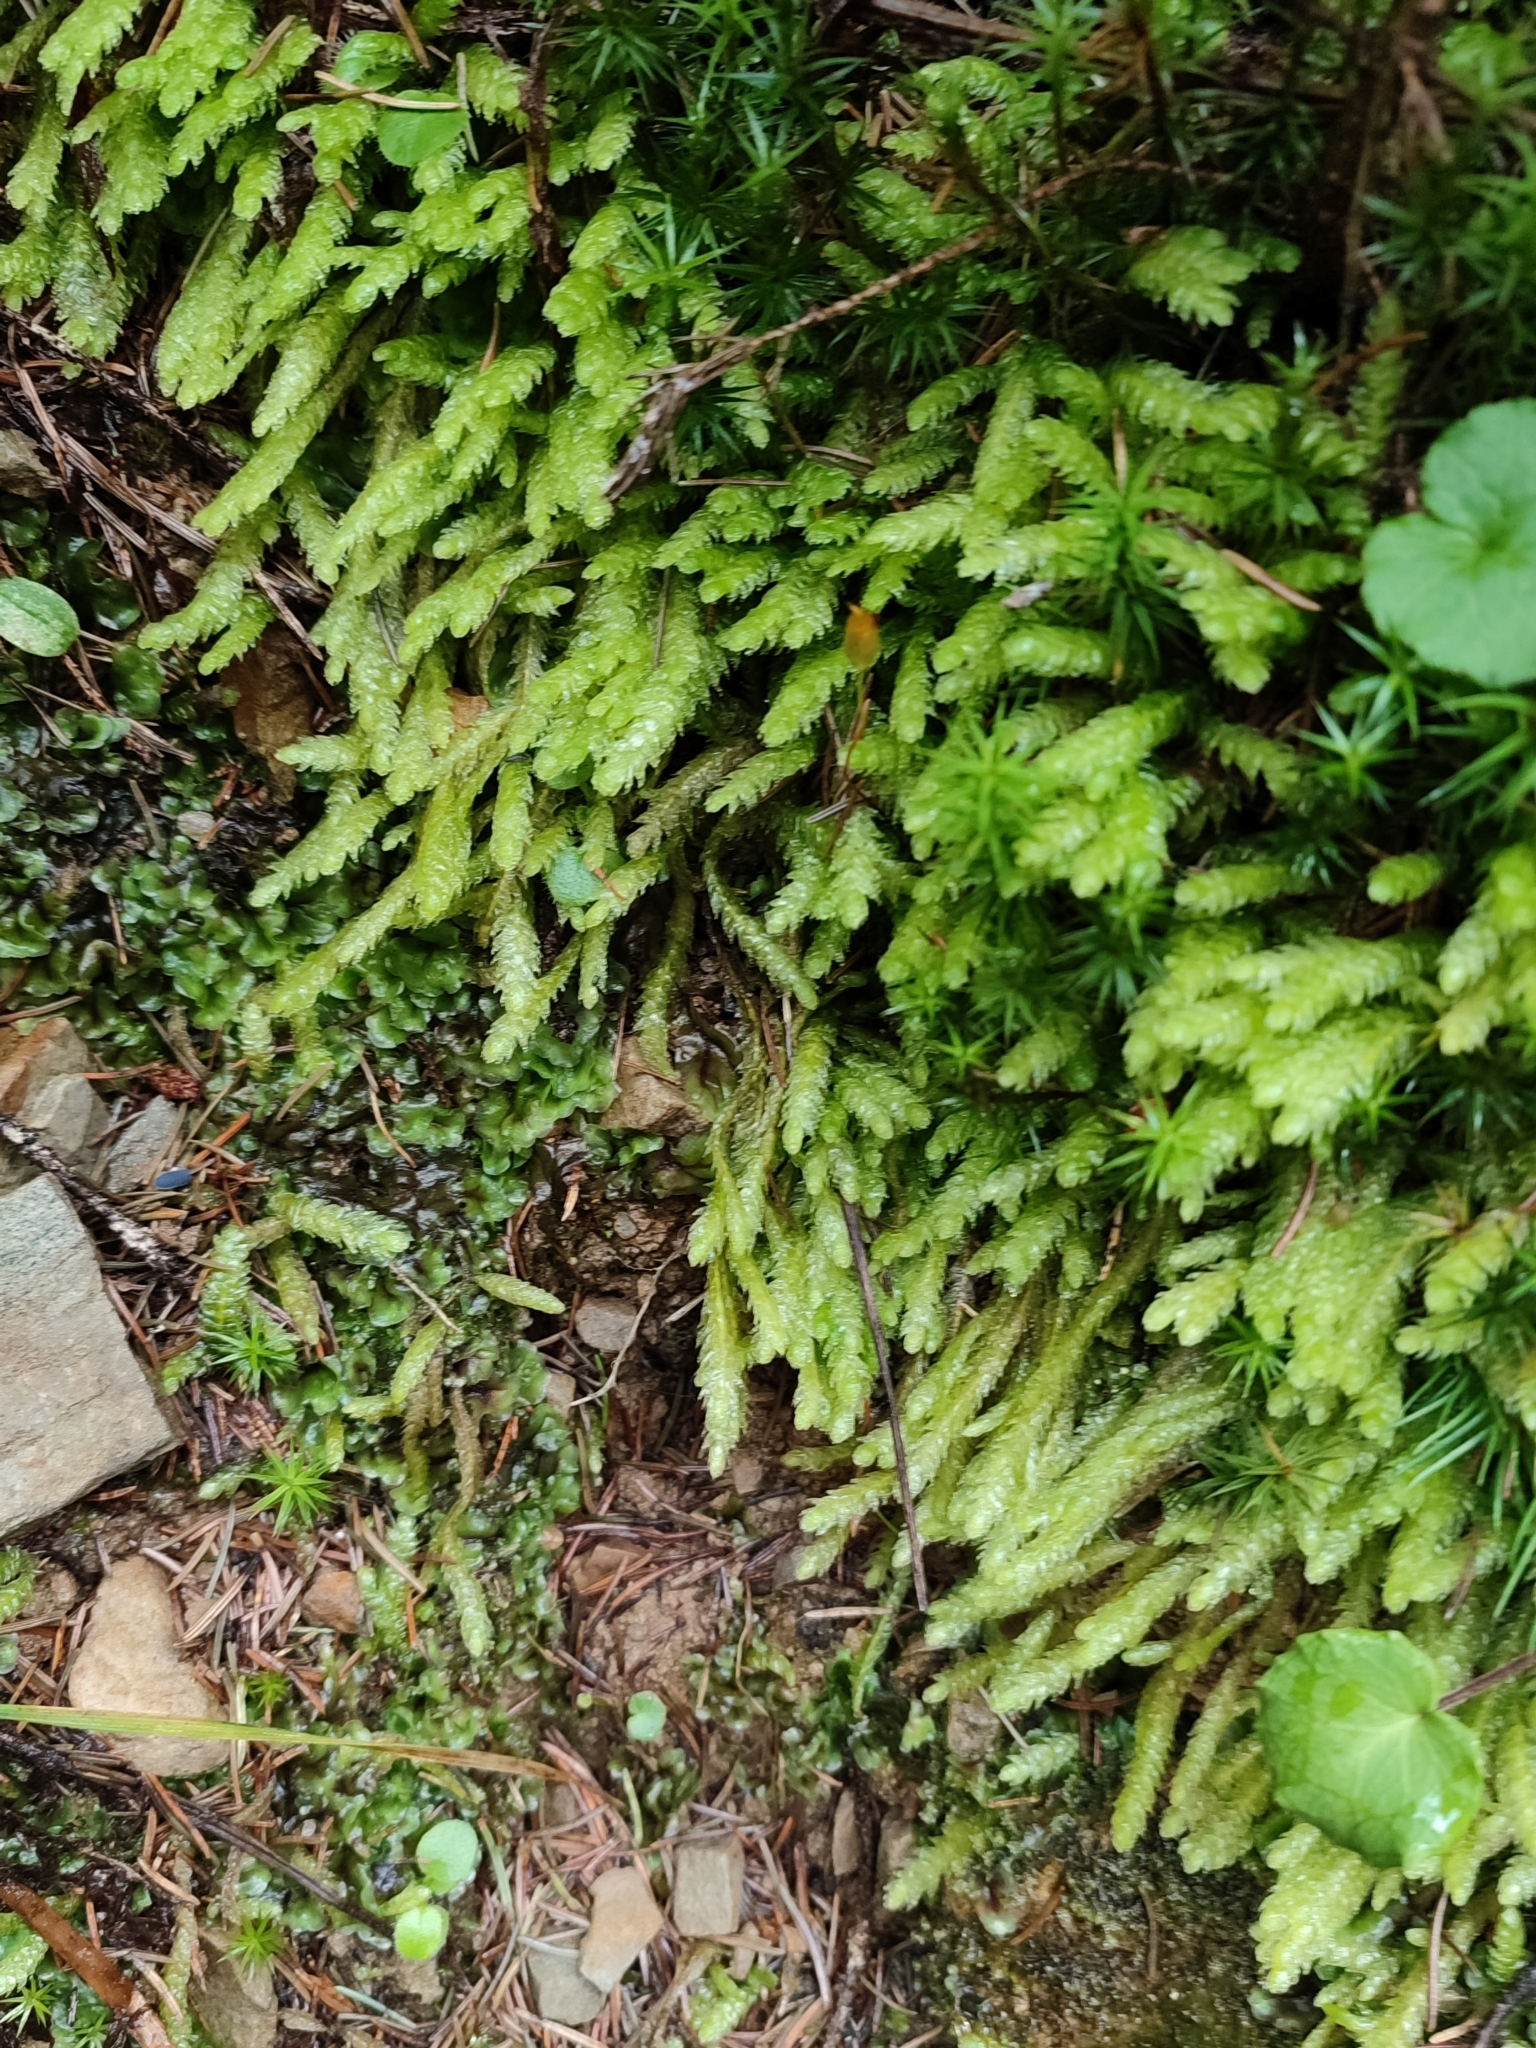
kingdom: Plantae
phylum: Bryophyta
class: Bryopsida
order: Hypnales
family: Plagiotheciaceae
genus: Plagiothecium
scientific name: Plagiothecium undulatum
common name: Waved silk-moss
